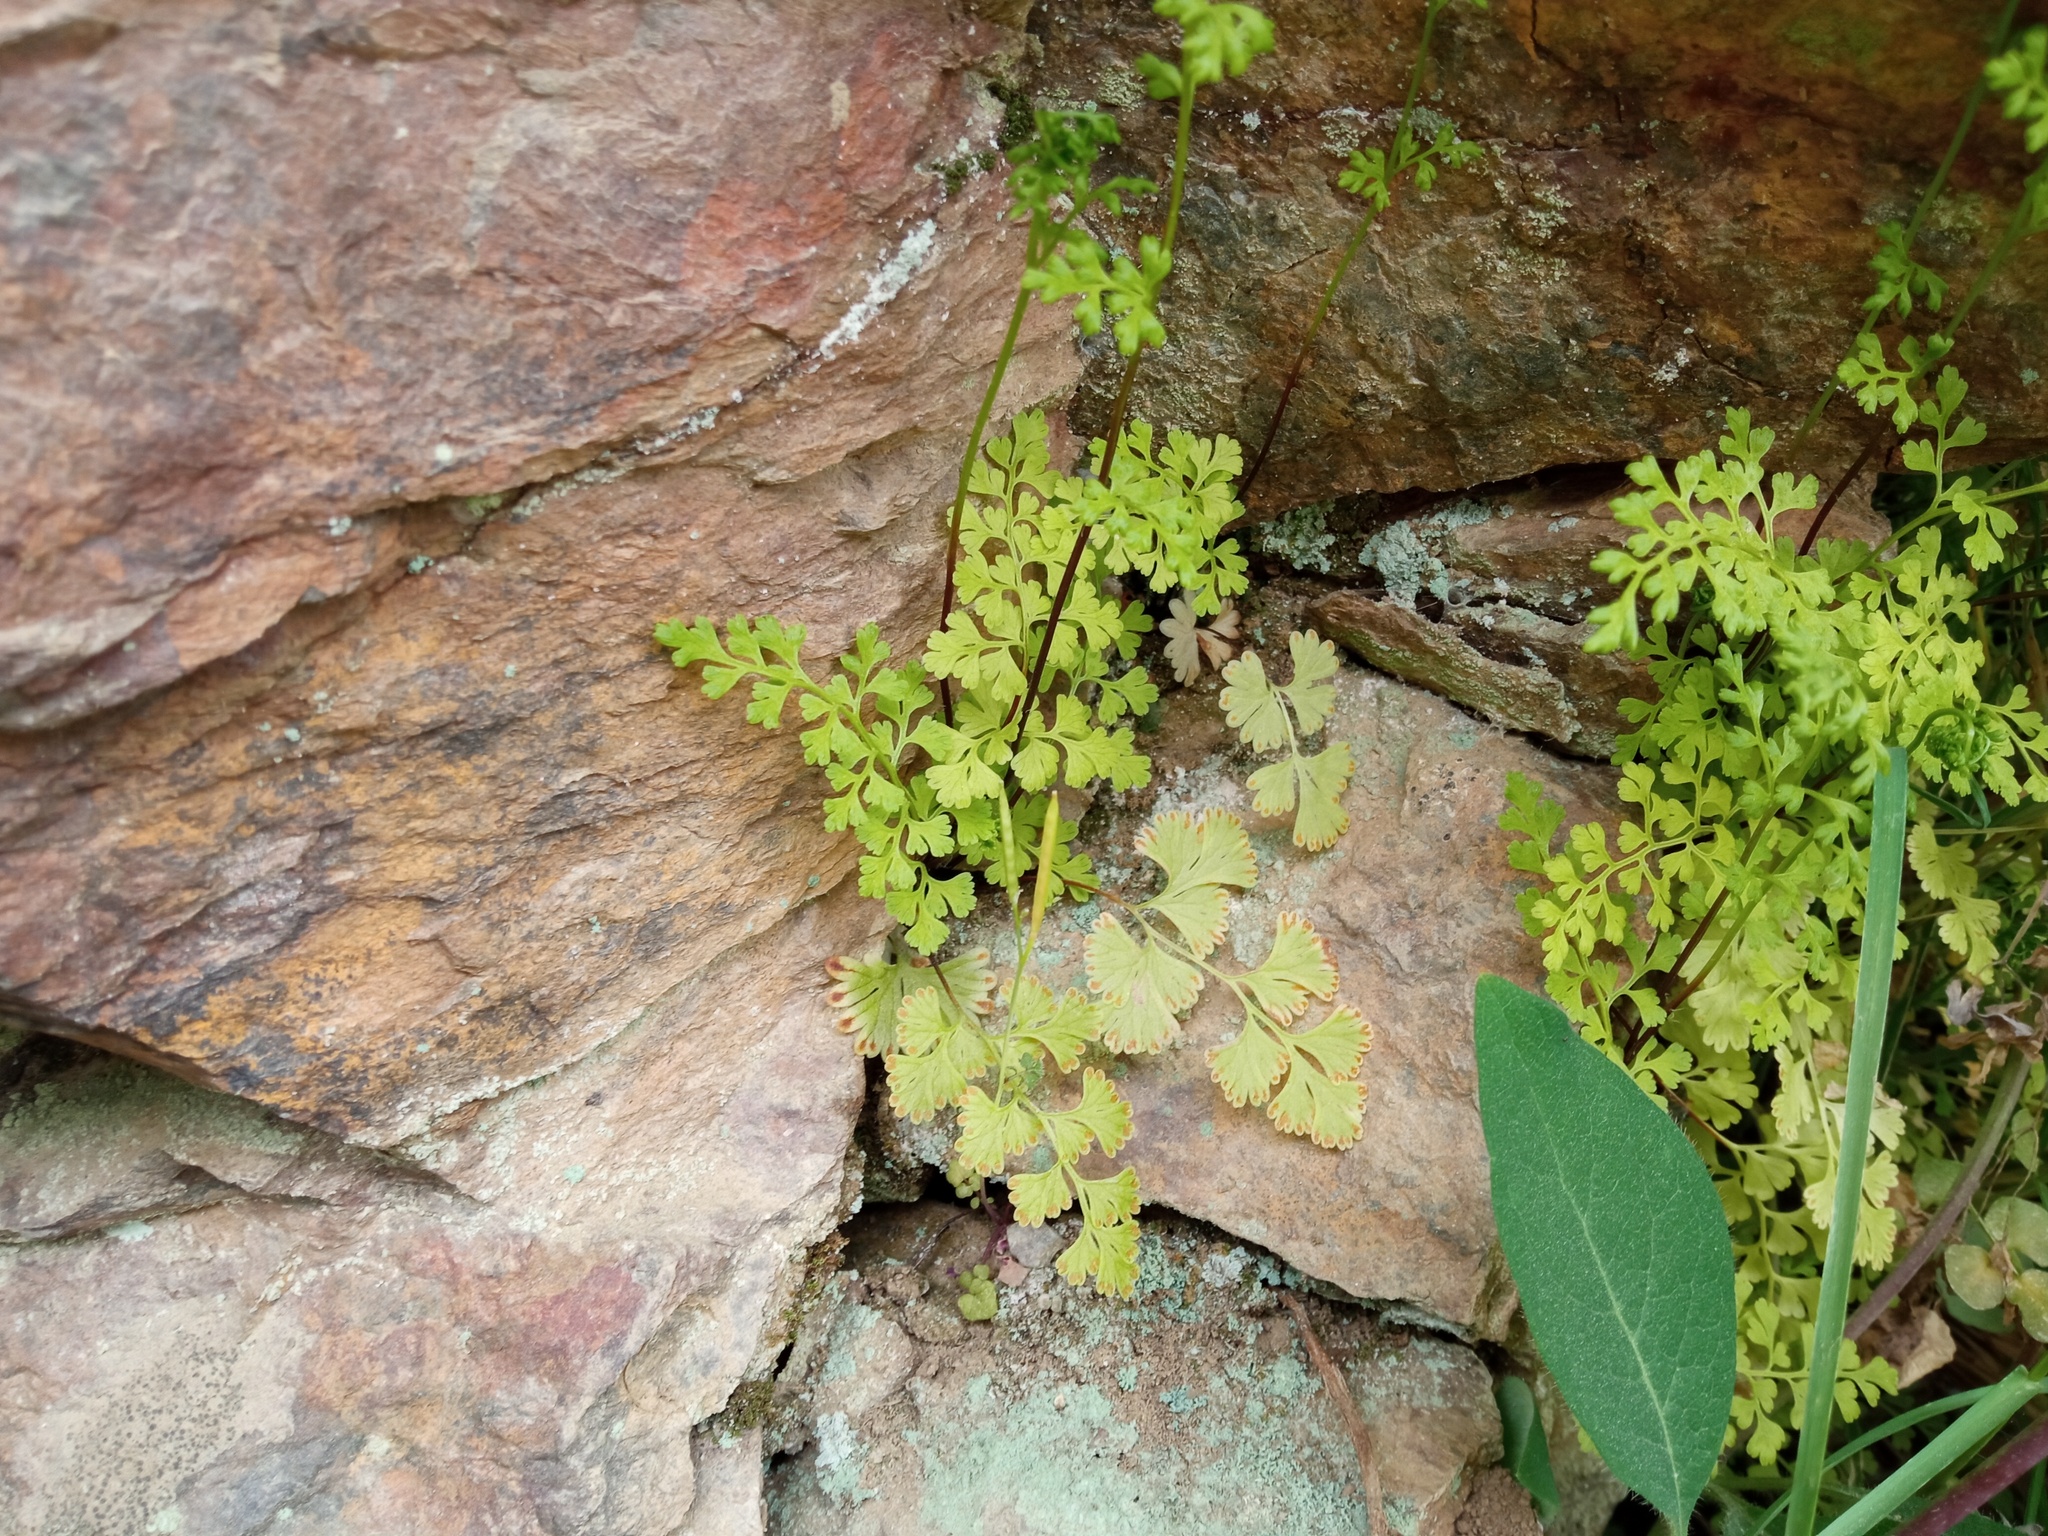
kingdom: Plantae
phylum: Tracheophyta
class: Polypodiopsida
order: Polypodiales
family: Pteridaceae
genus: Anogramma
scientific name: Anogramma leptophylla
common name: Jersey fern
